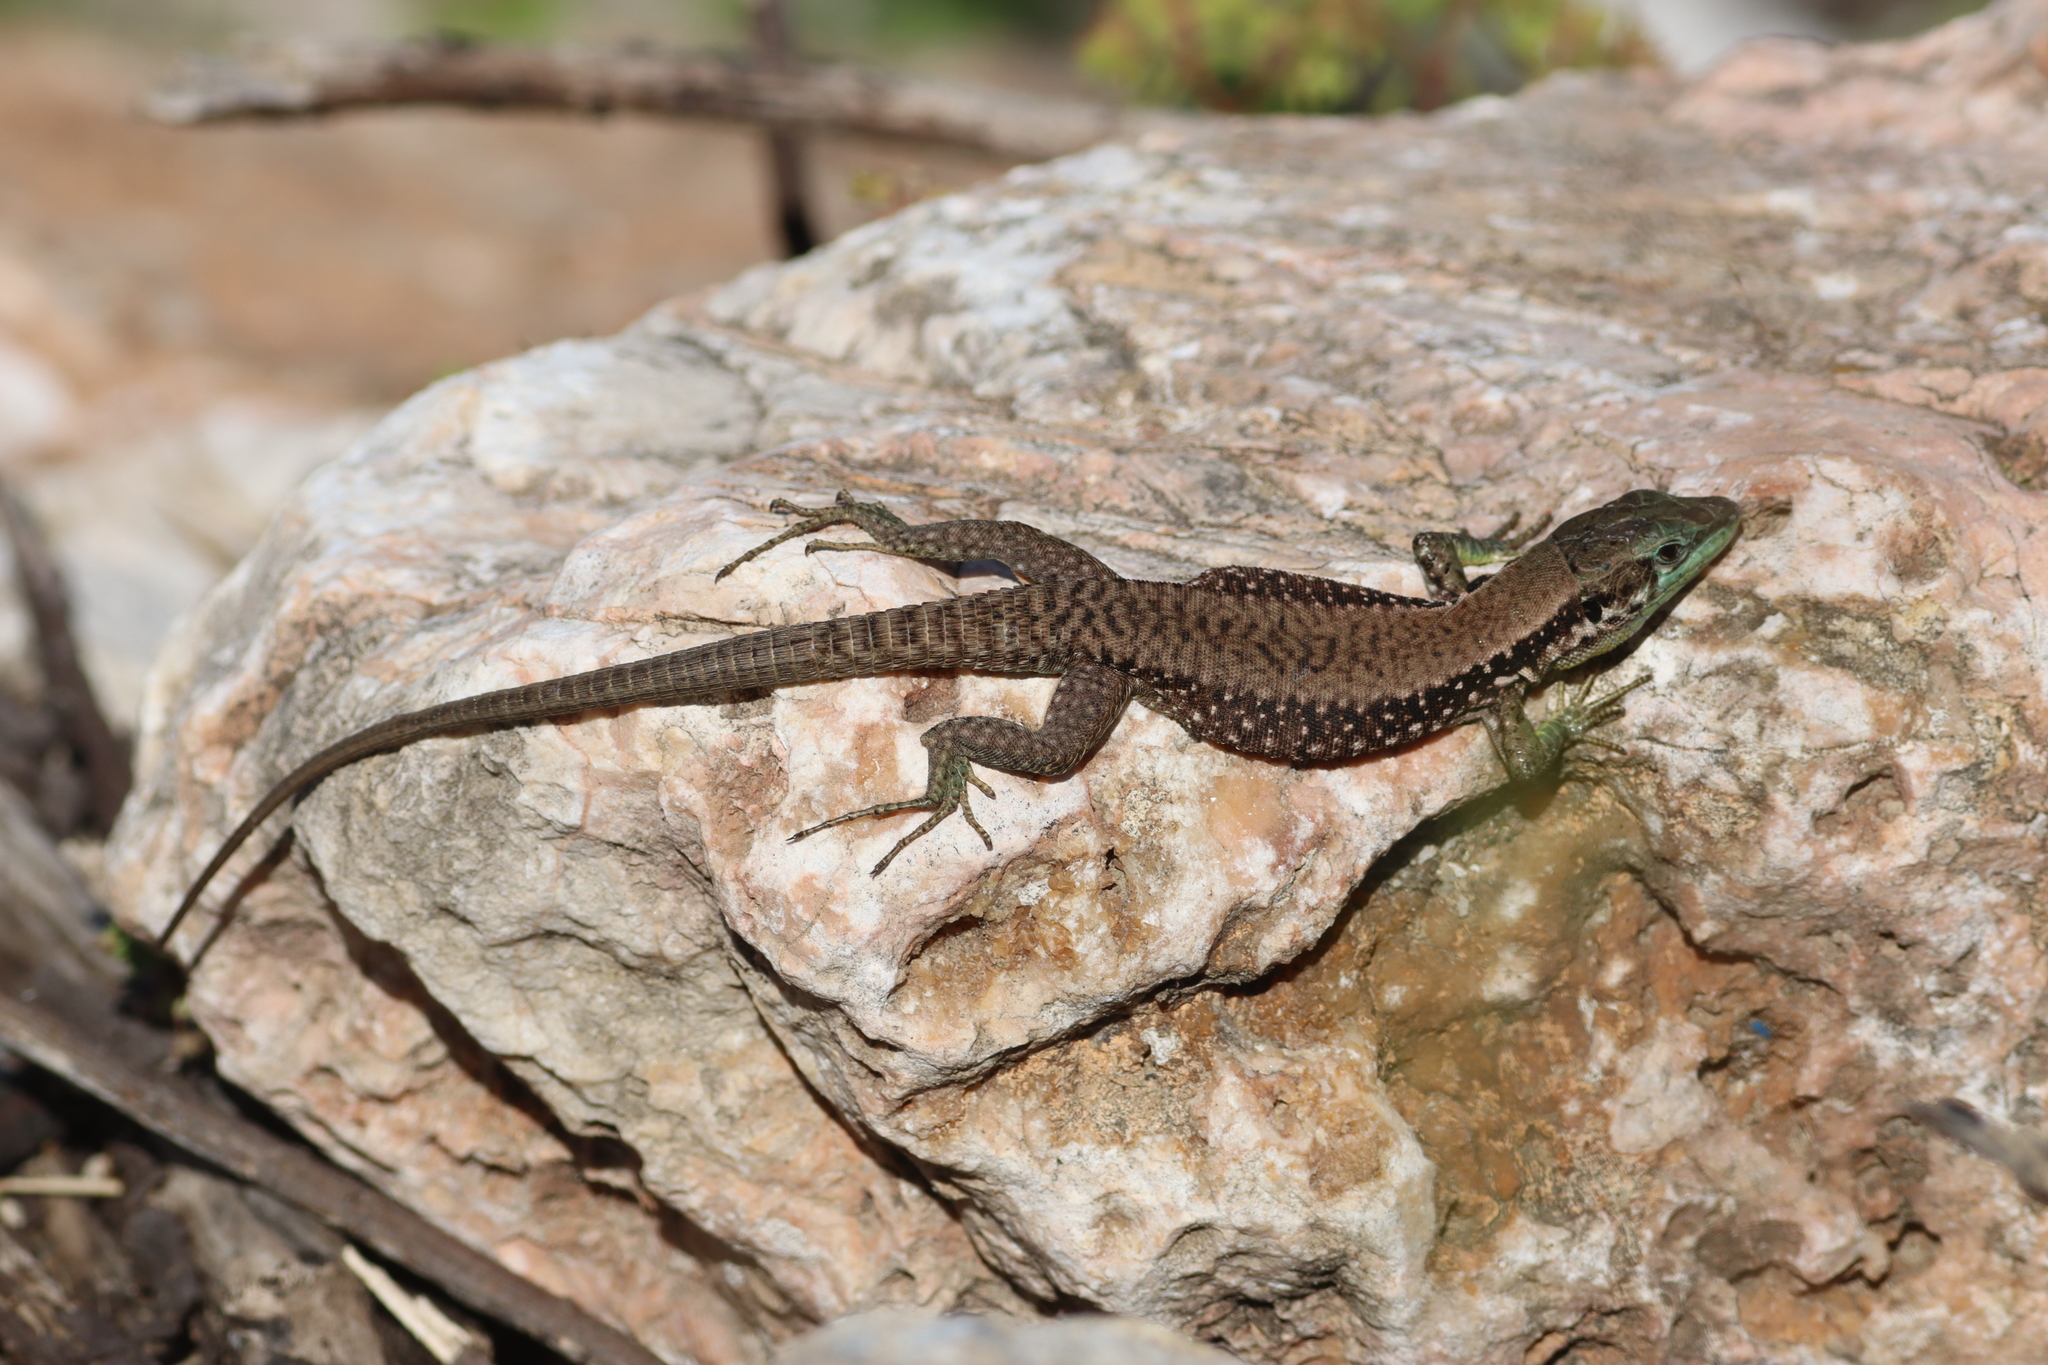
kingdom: Animalia
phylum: Chordata
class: Squamata
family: Lacertidae
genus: Phoenicolacerta
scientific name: Phoenicolacerta laevis
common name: Lebanon lizard
